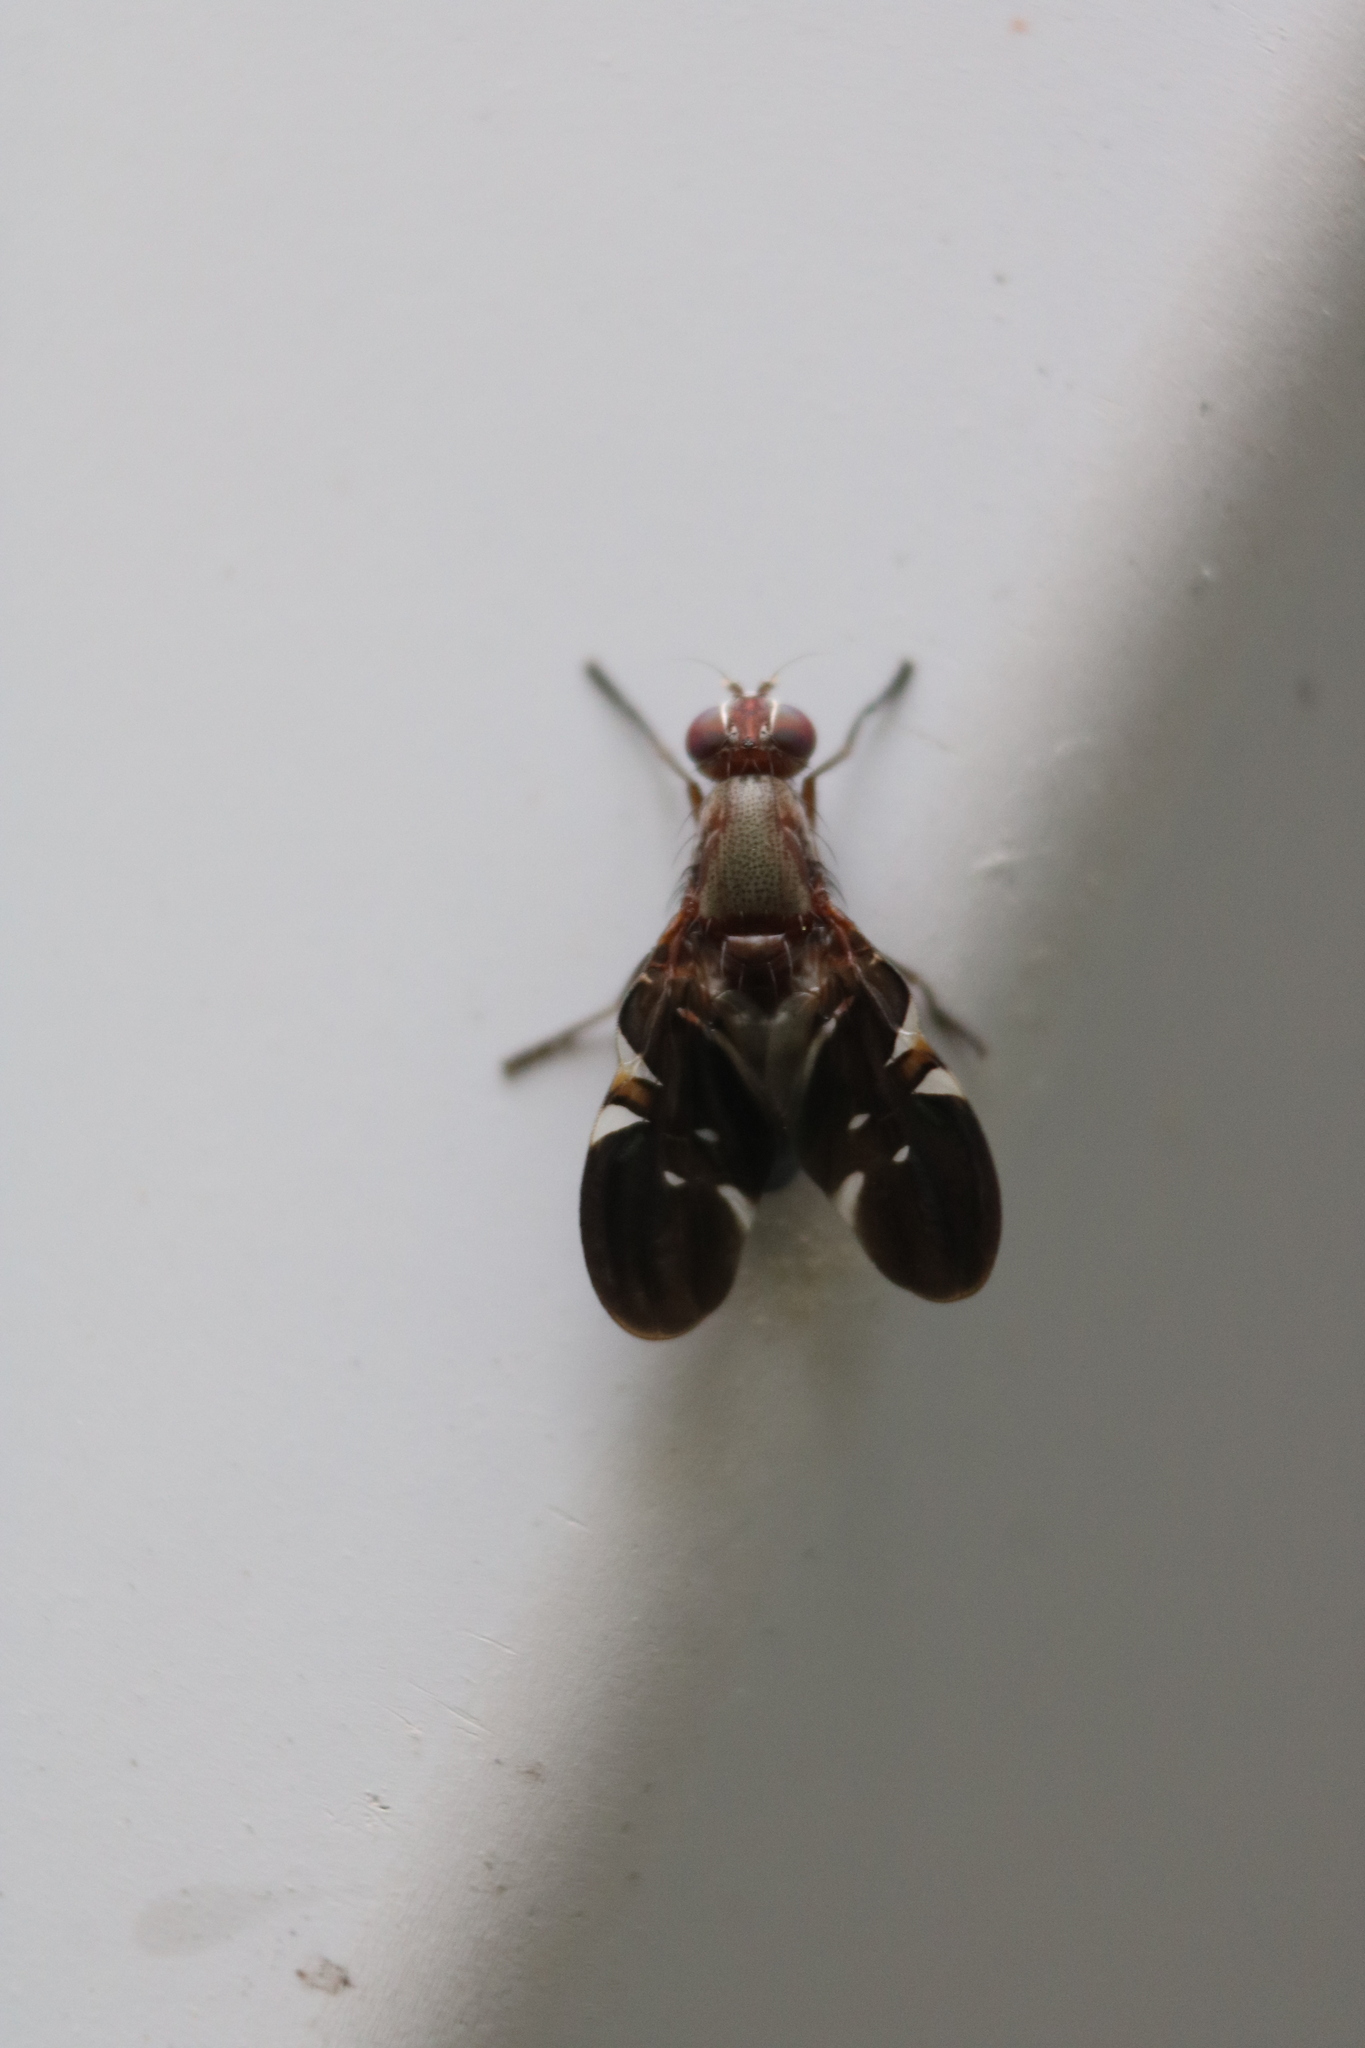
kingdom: Animalia
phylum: Arthropoda
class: Insecta
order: Diptera
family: Ulidiidae
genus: Delphinia
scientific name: Delphinia picta
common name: Common picture-winged fly
